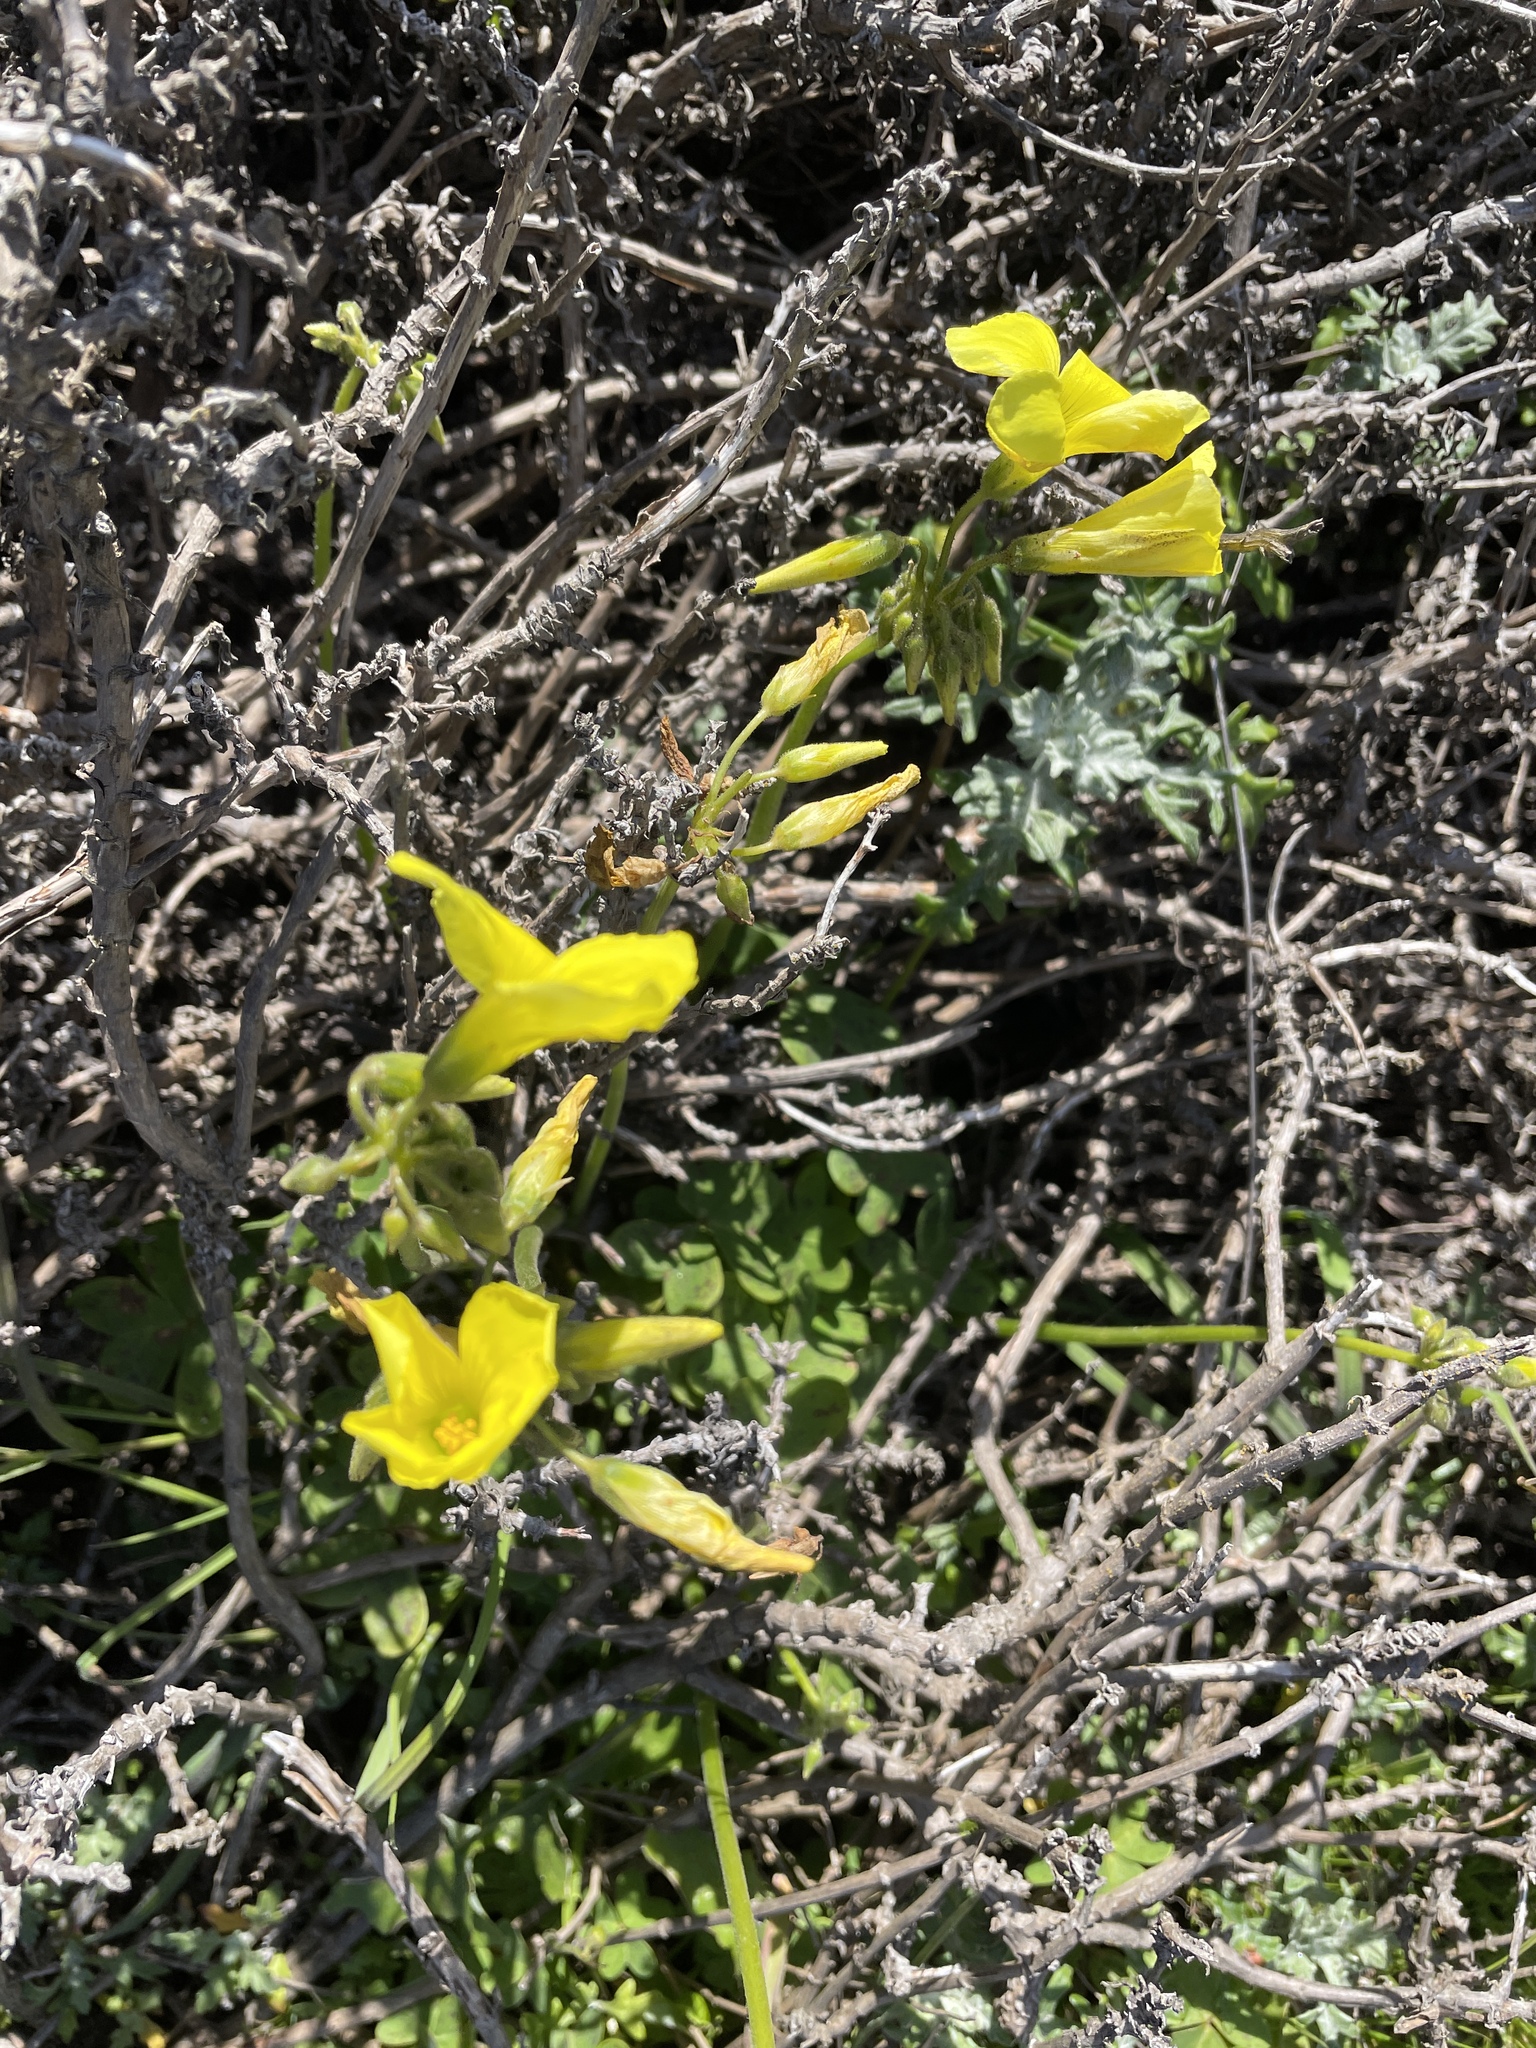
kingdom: Plantae
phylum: Tracheophyta
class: Magnoliopsida
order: Oxalidales
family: Oxalidaceae
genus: Oxalis
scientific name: Oxalis pes-caprae
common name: Bermuda-buttercup
